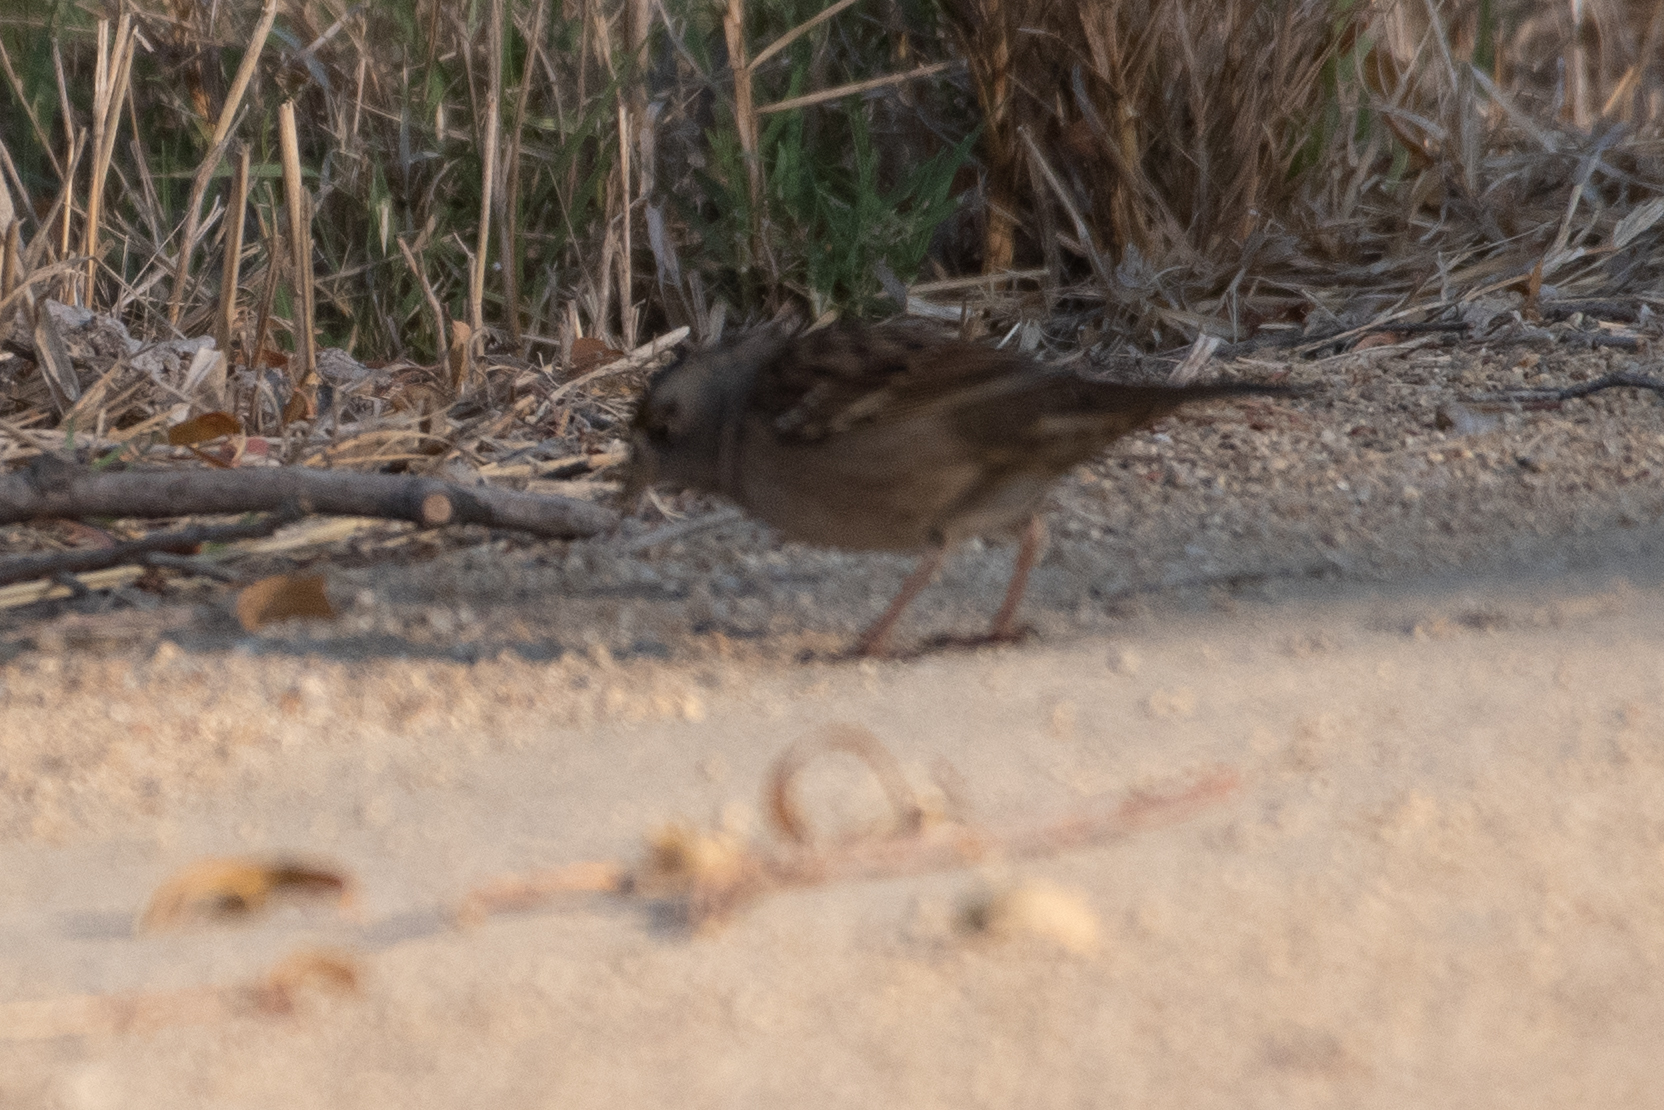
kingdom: Animalia
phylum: Chordata
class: Aves
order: Passeriformes
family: Passerellidae
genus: Zonotrichia
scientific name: Zonotrichia atricapilla
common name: Golden-crowned sparrow
